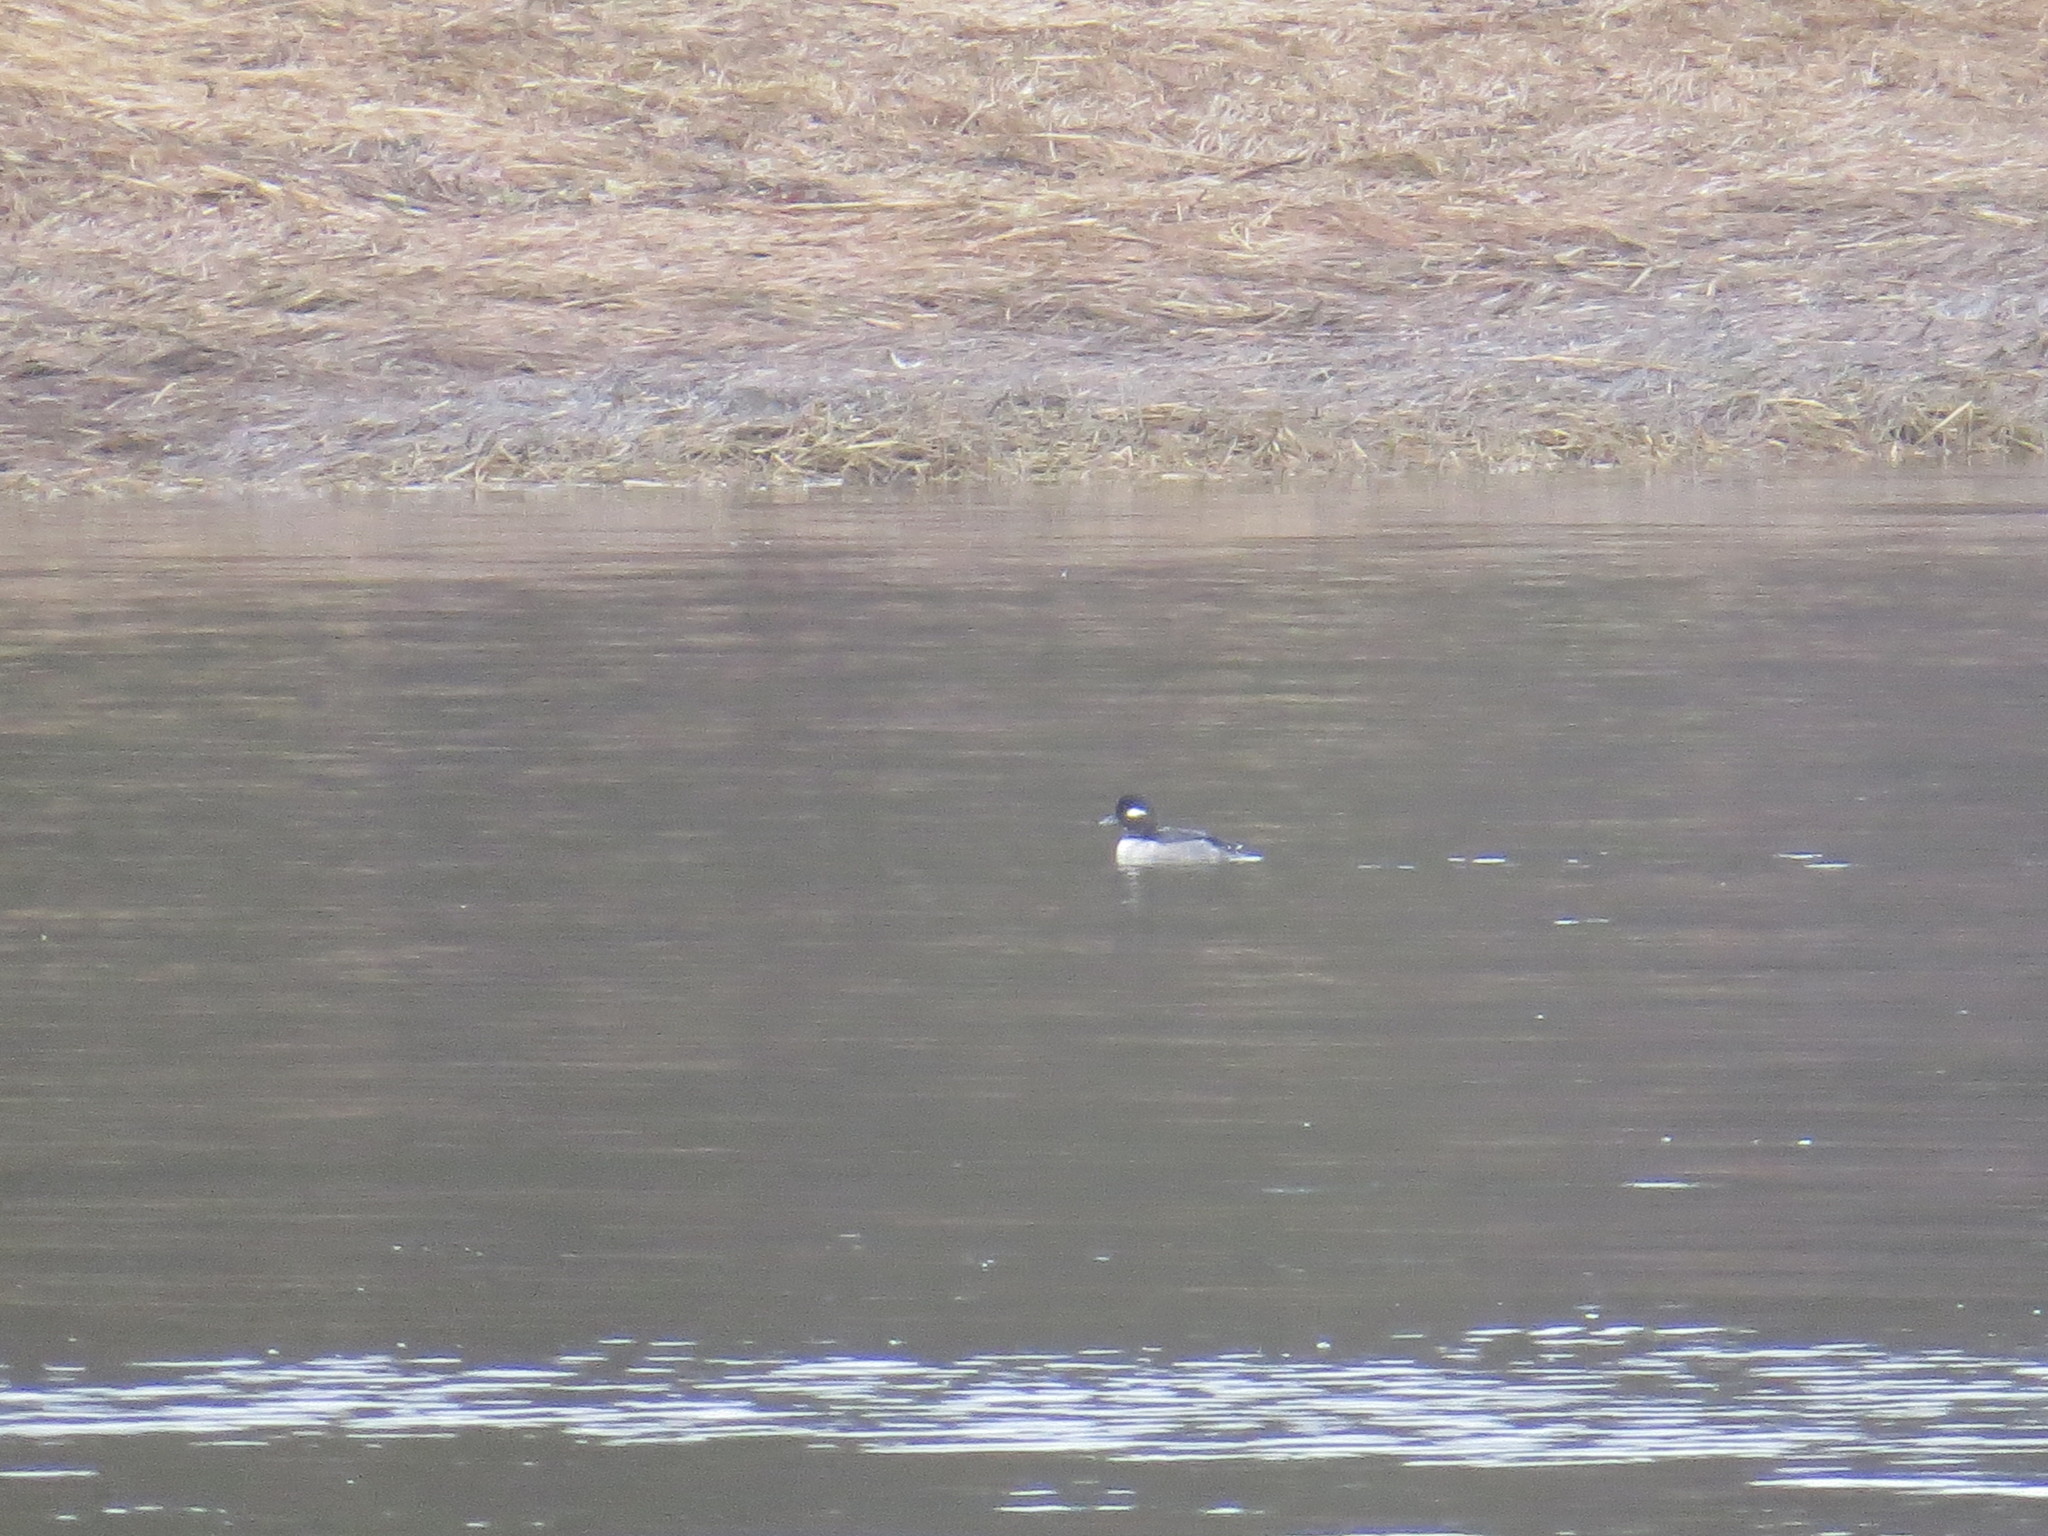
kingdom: Animalia
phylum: Chordata
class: Aves
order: Anseriformes
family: Anatidae
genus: Bucephala
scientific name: Bucephala albeola
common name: Bufflehead
